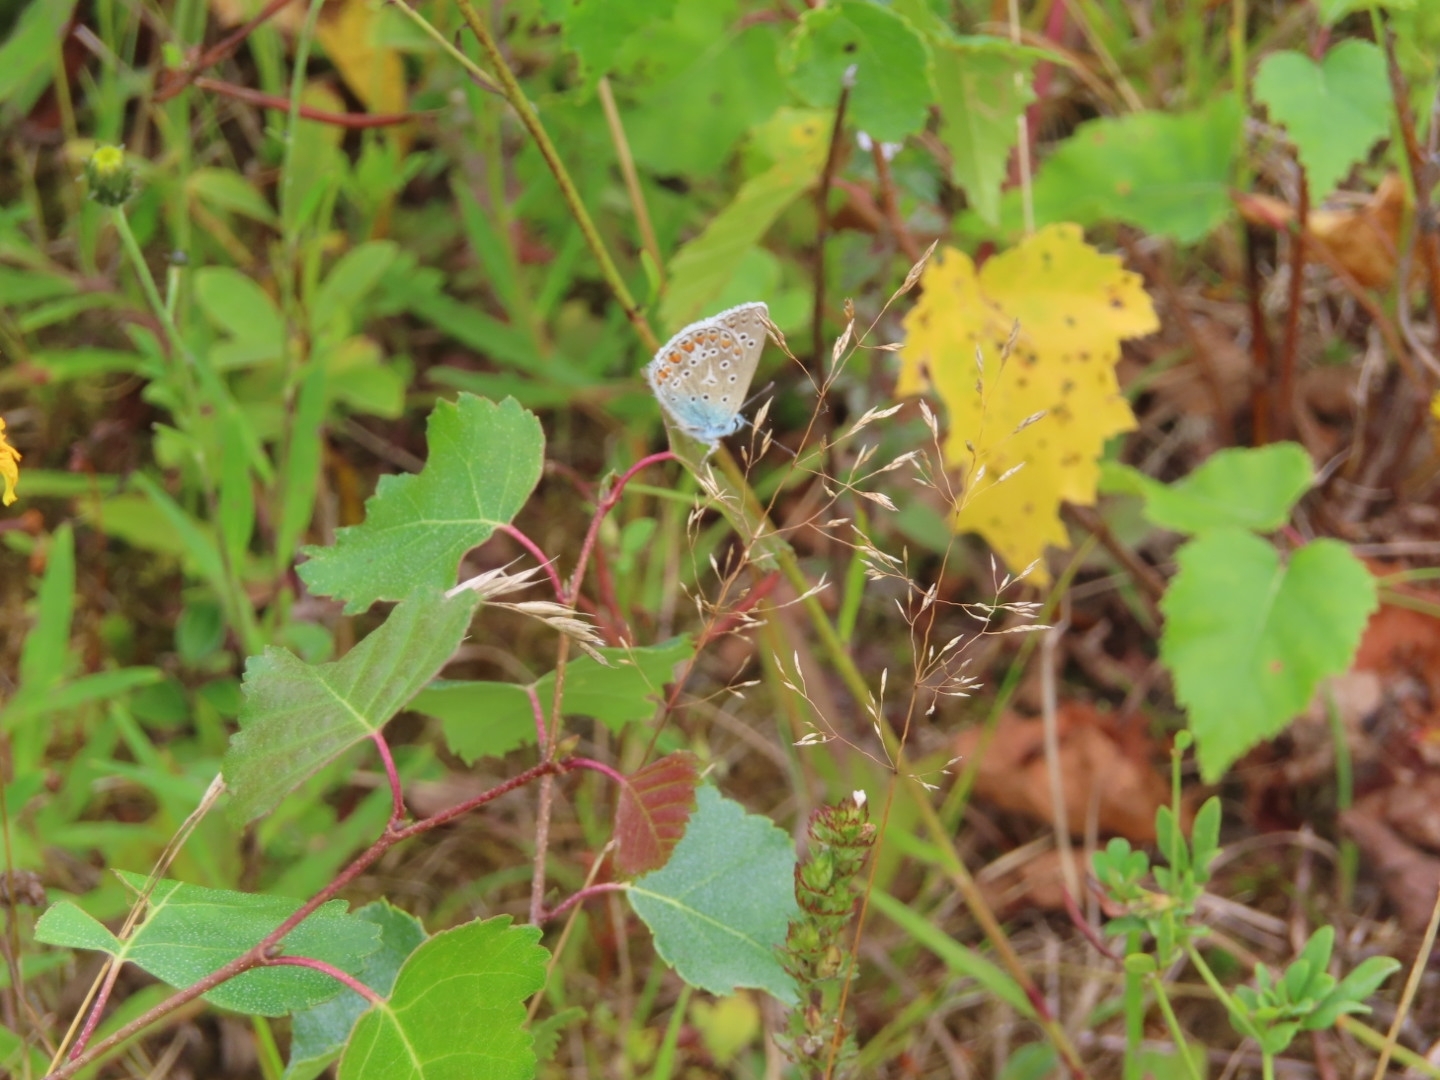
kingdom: Animalia
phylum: Arthropoda
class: Insecta
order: Lepidoptera
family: Lycaenidae
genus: Polyommatus
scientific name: Polyommatus icarus
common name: Common blue
